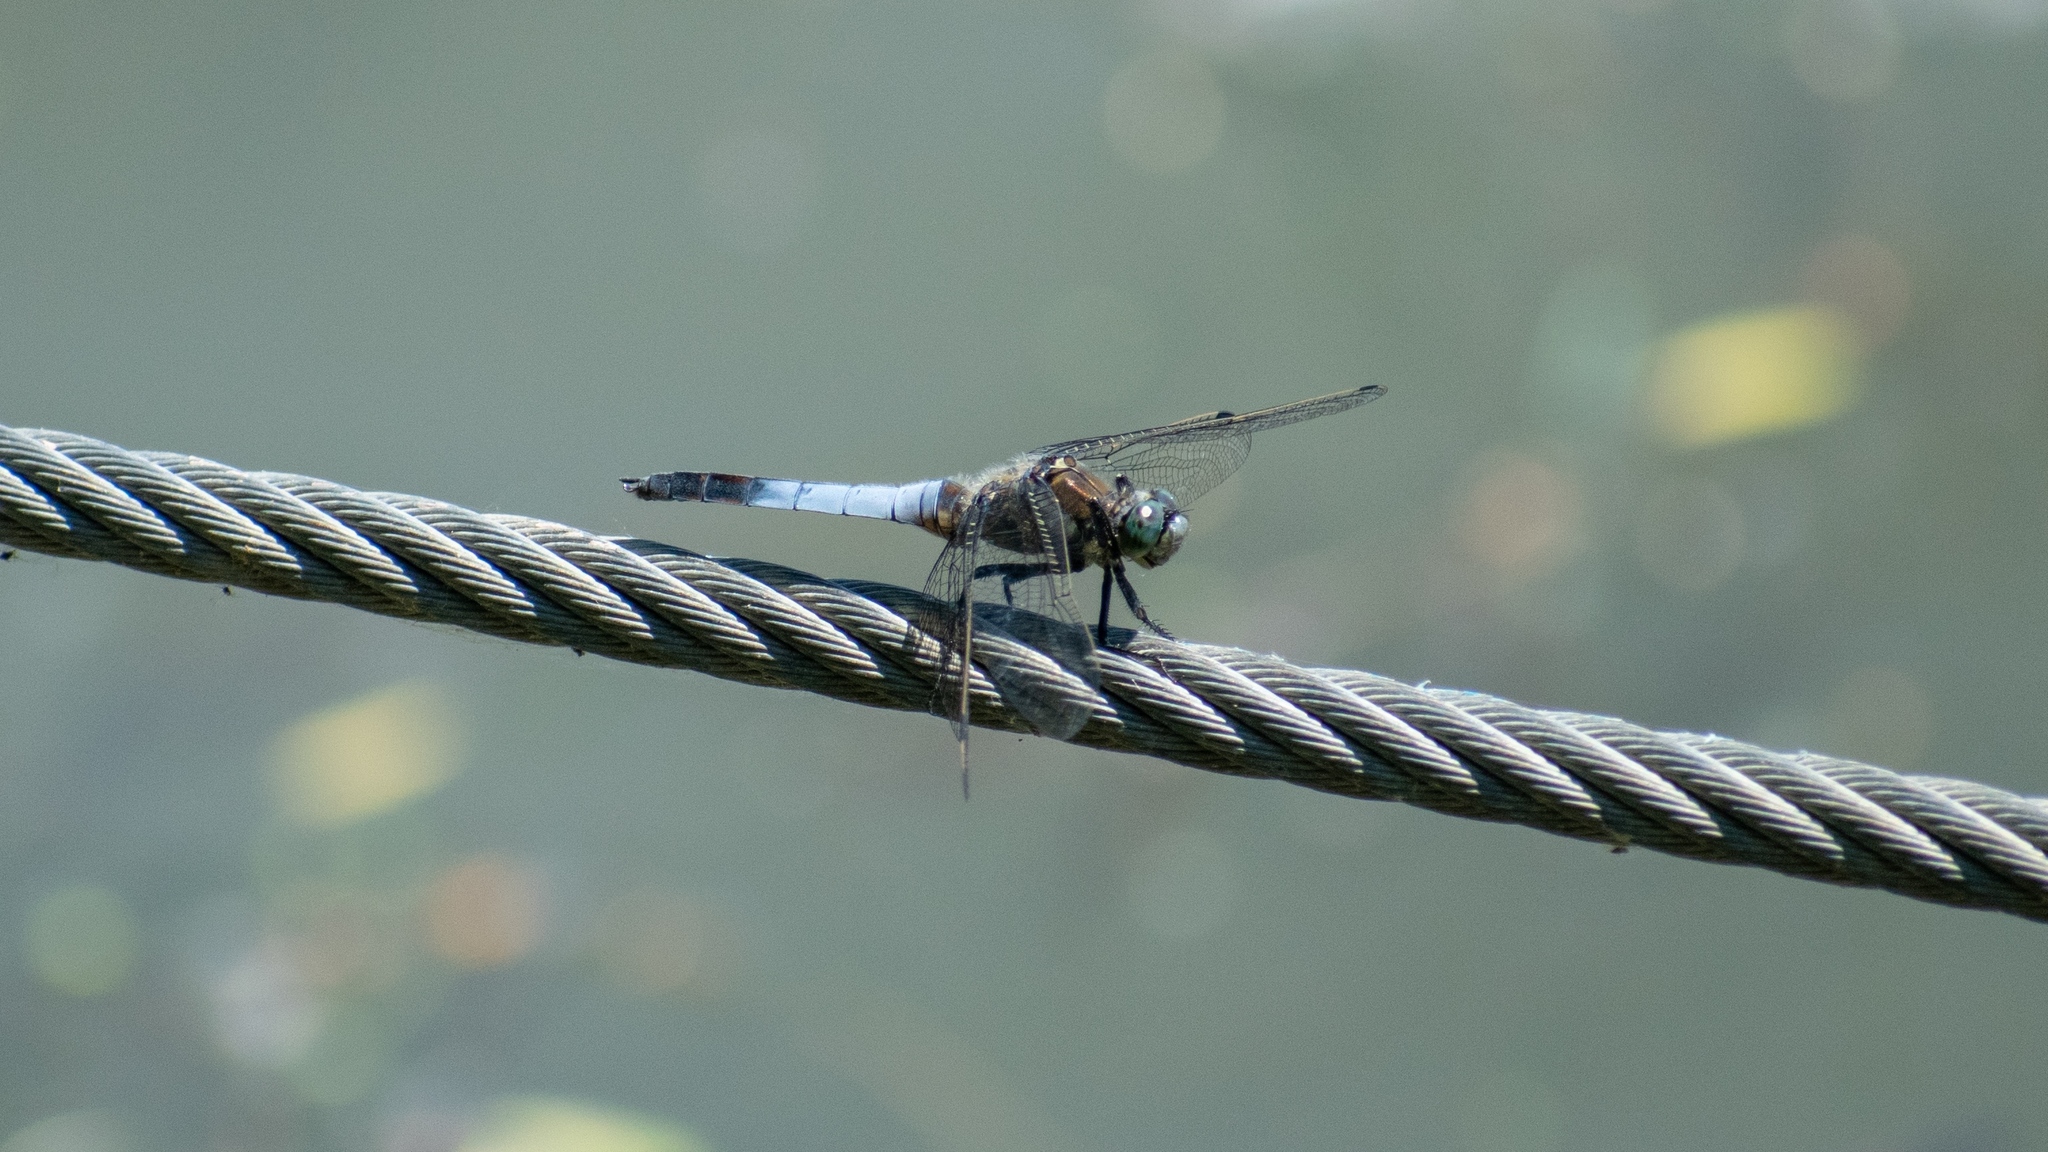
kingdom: Animalia
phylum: Arthropoda
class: Insecta
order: Odonata
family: Libellulidae
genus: Orthetrum
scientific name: Orthetrum cancellatum
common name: Black-tailed skimmer
